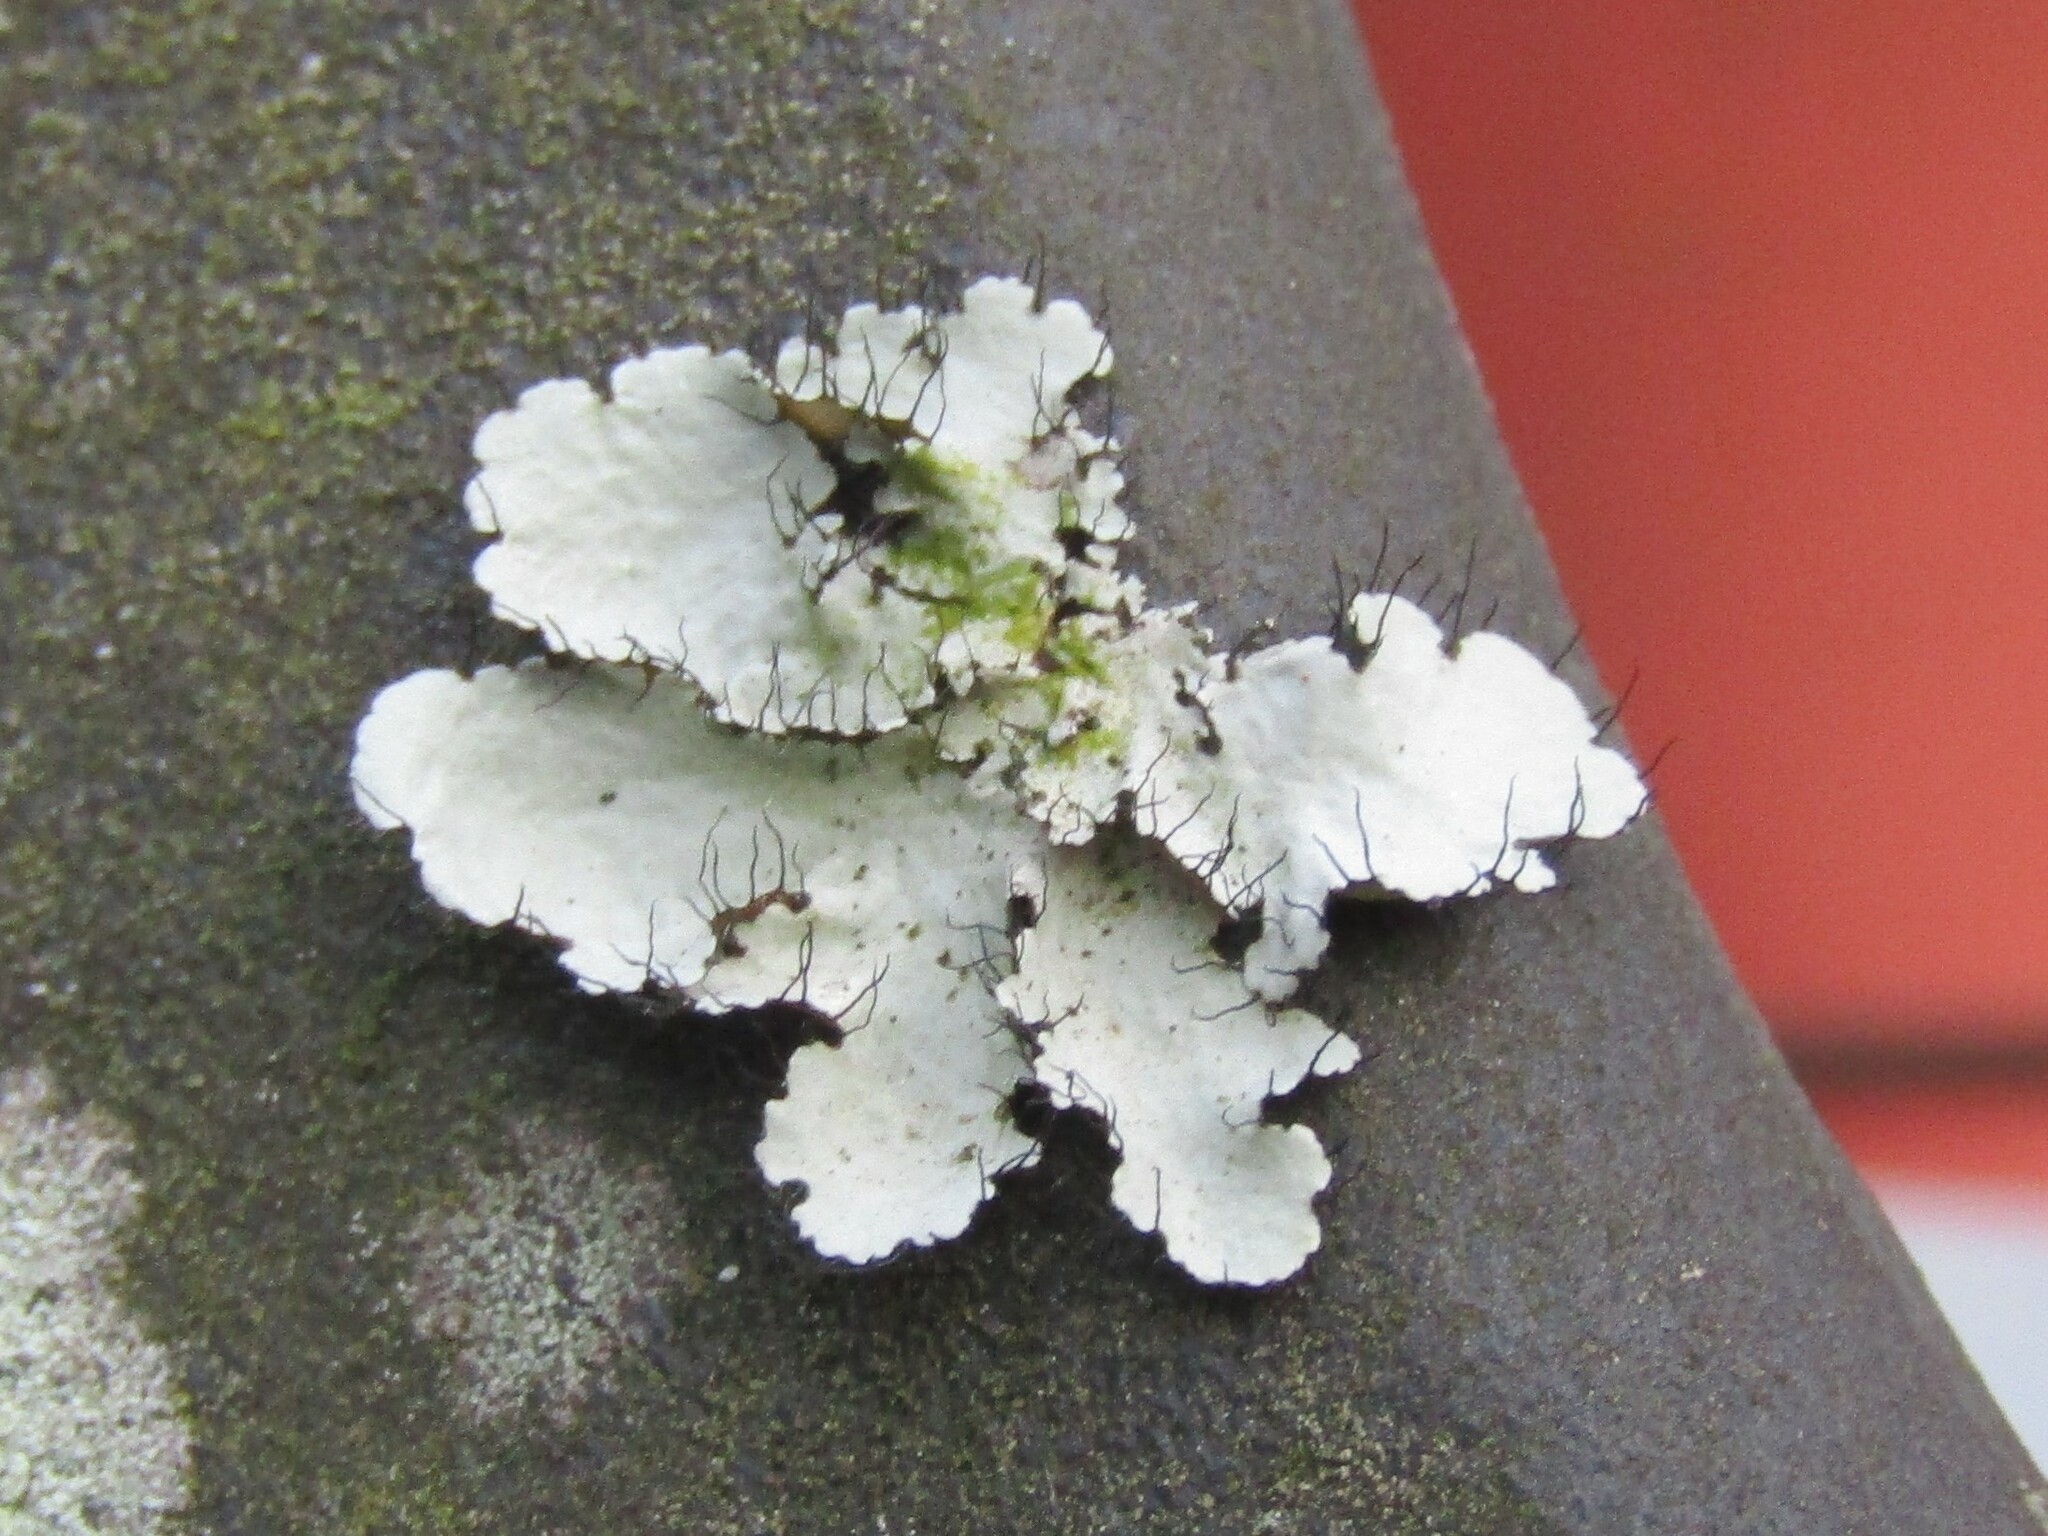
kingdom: Fungi
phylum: Ascomycota
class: Lecanoromycetes
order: Lecanorales
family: Parmeliaceae
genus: Parmotrema
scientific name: Parmotrema hypotropum
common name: Powdered ruffle lichen
